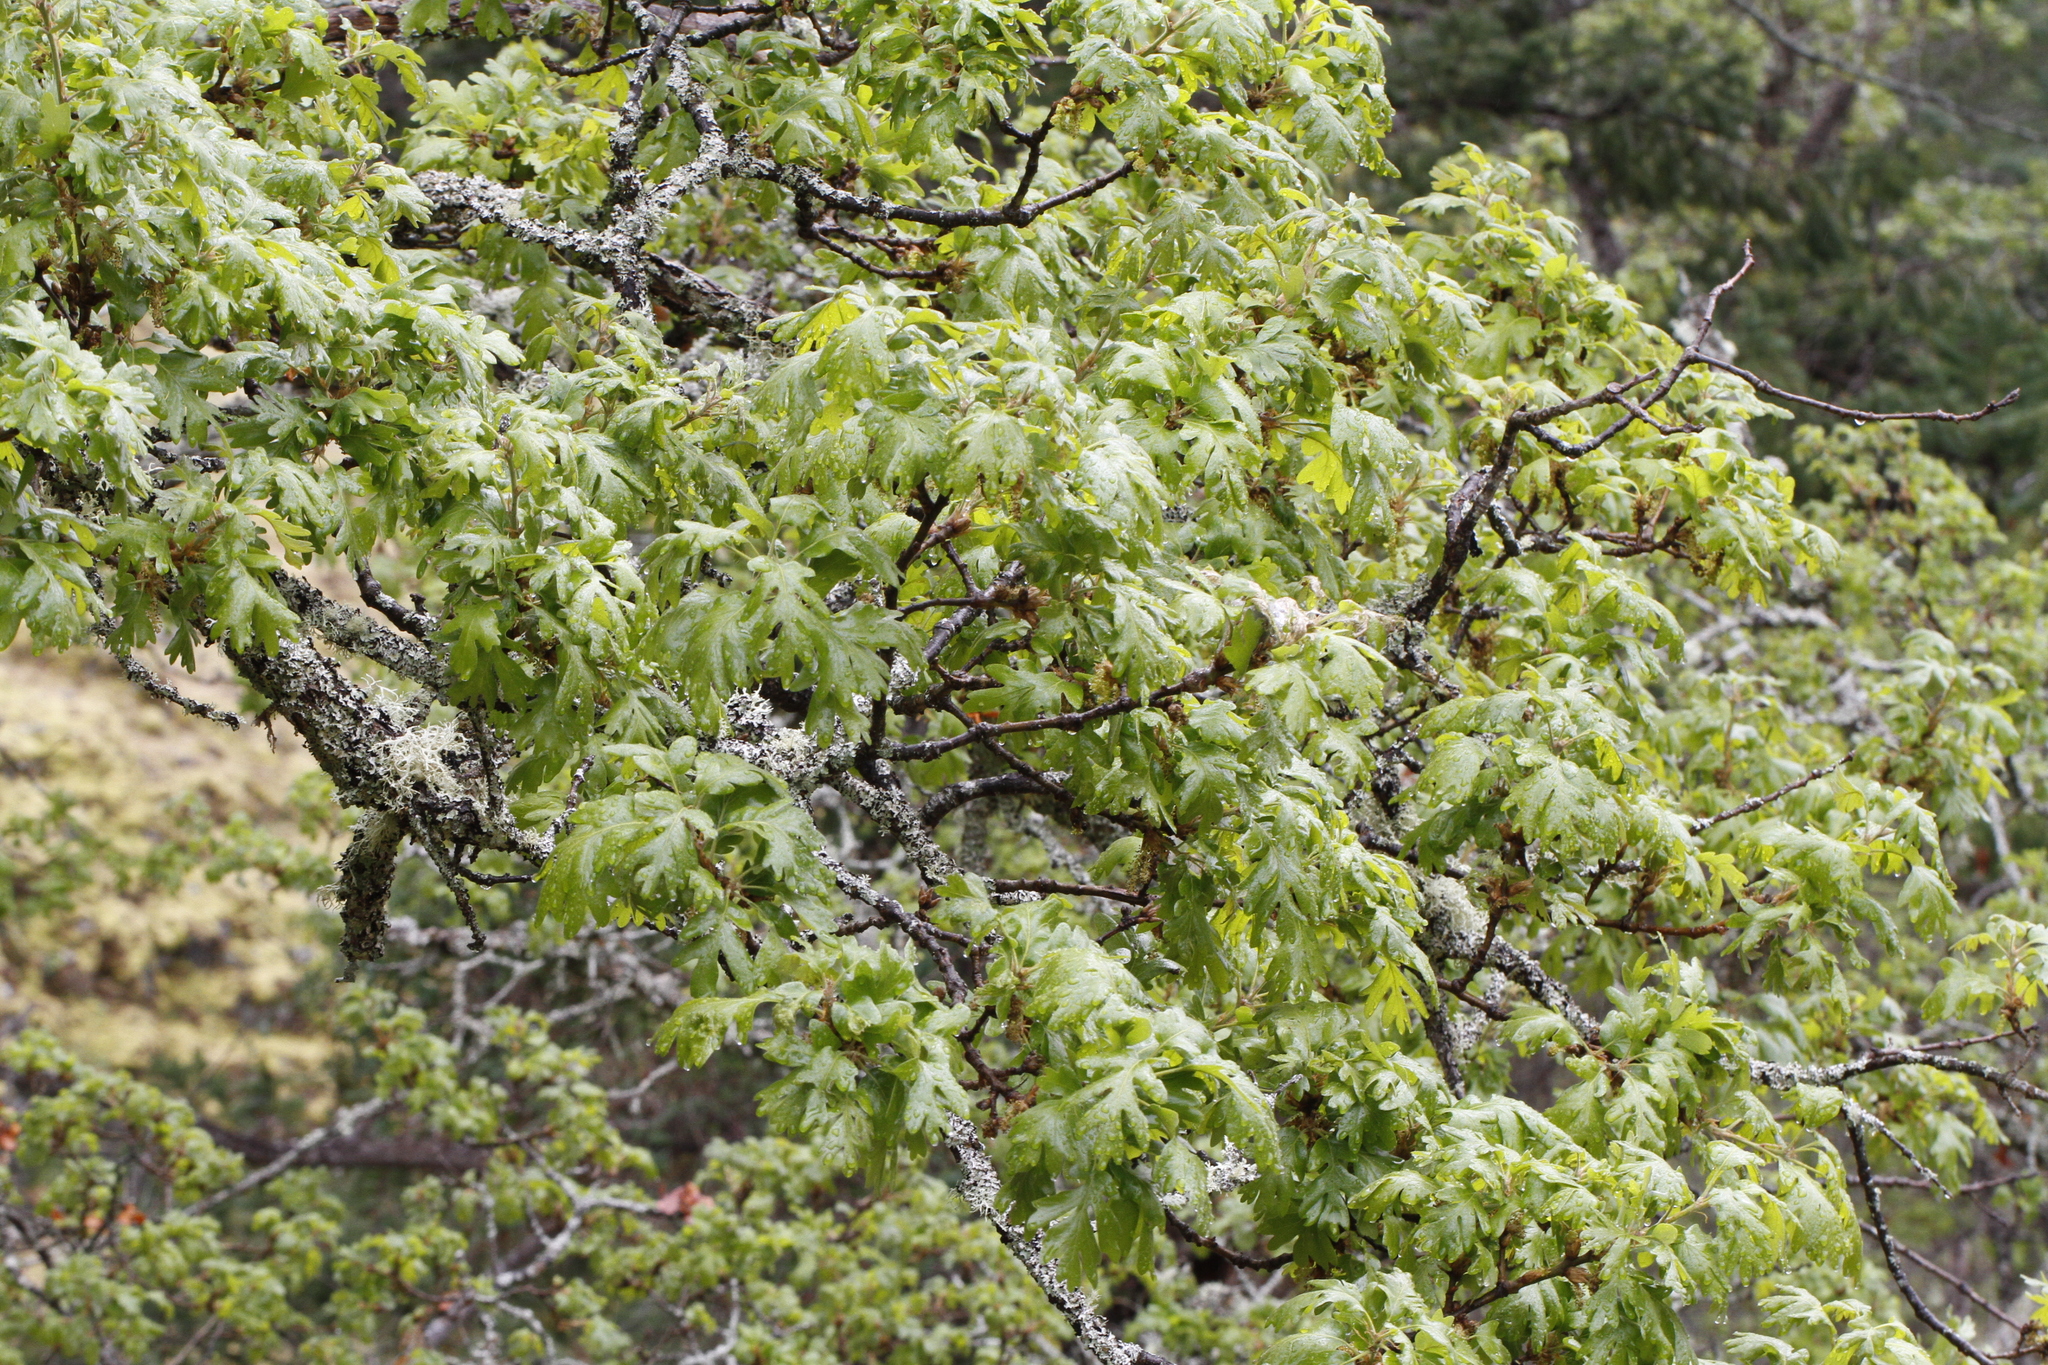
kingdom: Plantae
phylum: Tracheophyta
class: Magnoliopsida
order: Fagales
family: Fagaceae
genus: Quercus
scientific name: Quercus garryana
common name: Garry oak
